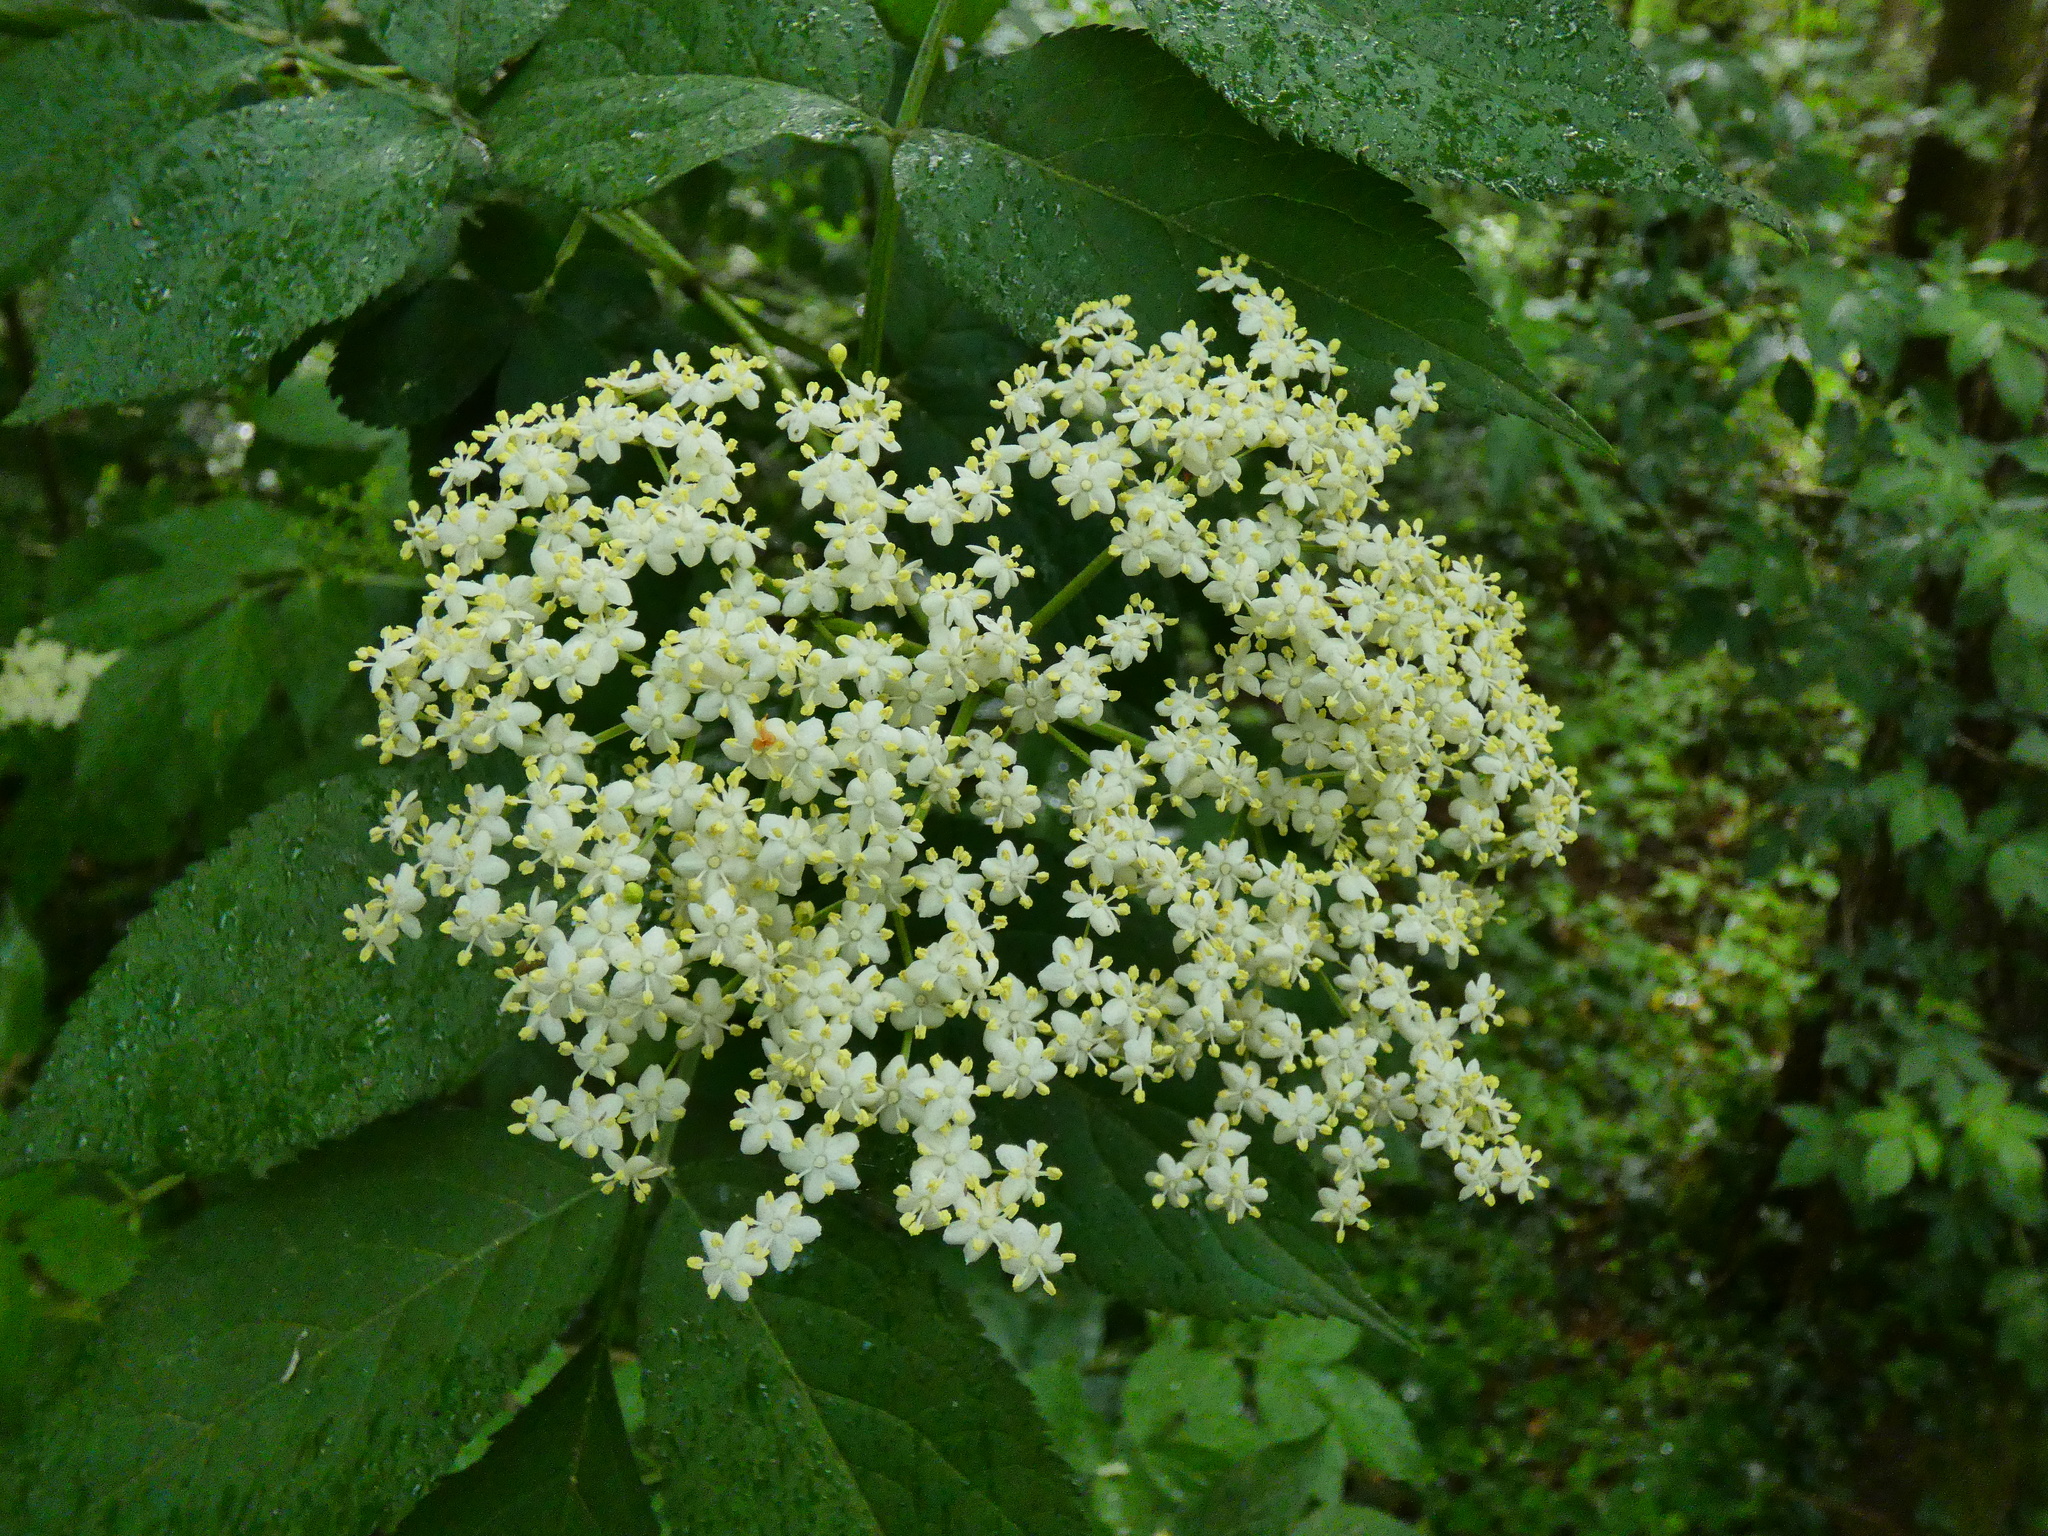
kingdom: Plantae
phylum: Tracheophyta
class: Magnoliopsida
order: Dipsacales
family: Viburnaceae
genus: Sambucus
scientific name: Sambucus nigra
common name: Elder
